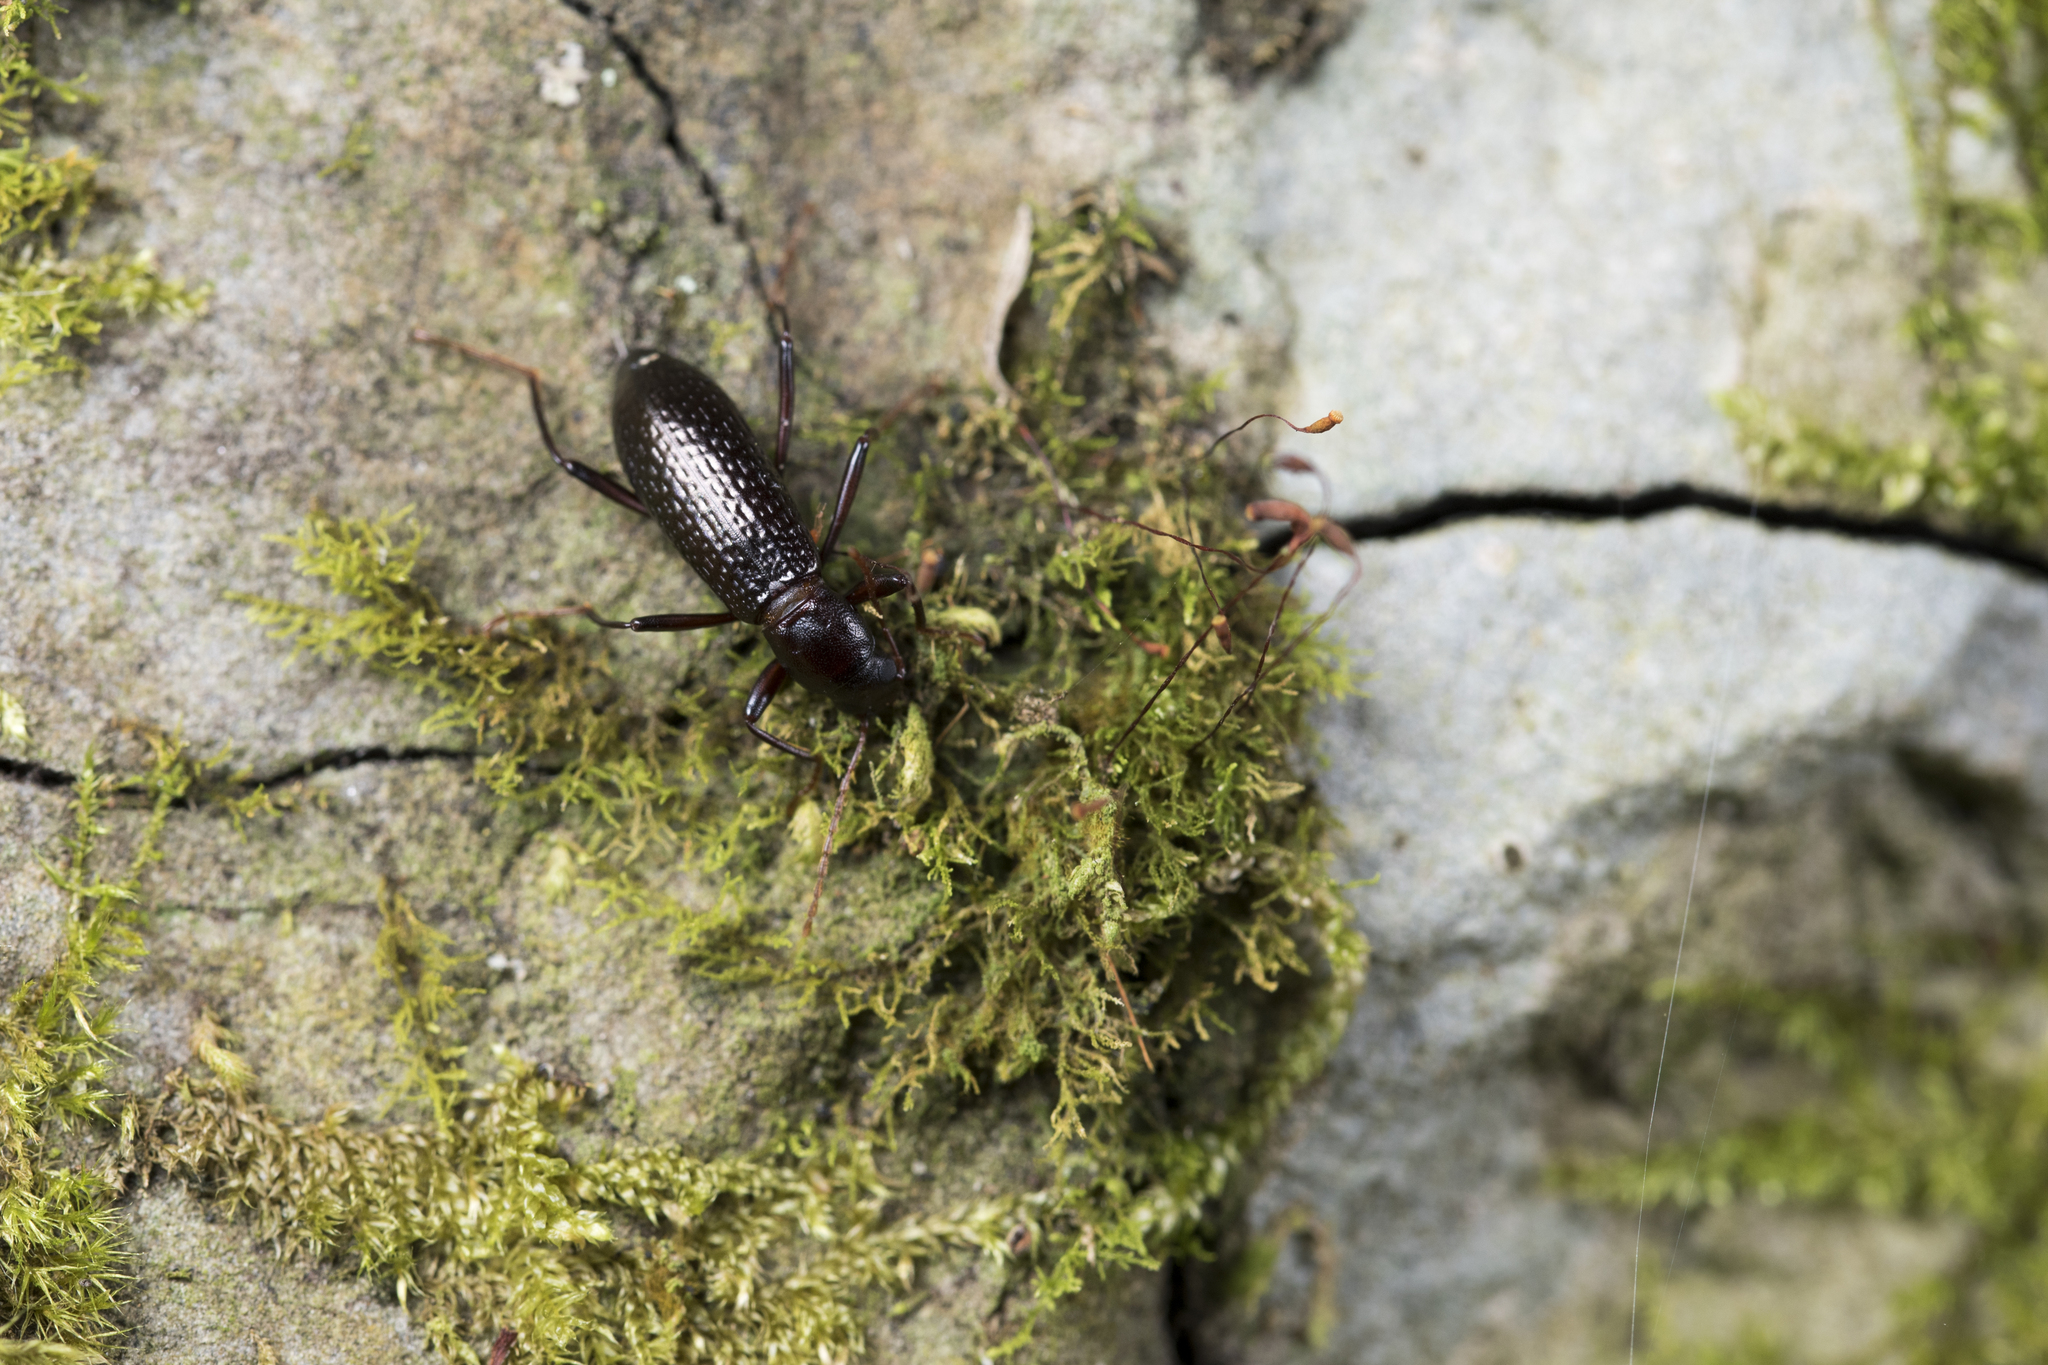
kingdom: Animalia
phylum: Arthropoda
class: Insecta
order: Coleoptera
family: Tenebrionidae
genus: Strongylium
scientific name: Strongylium clauda
